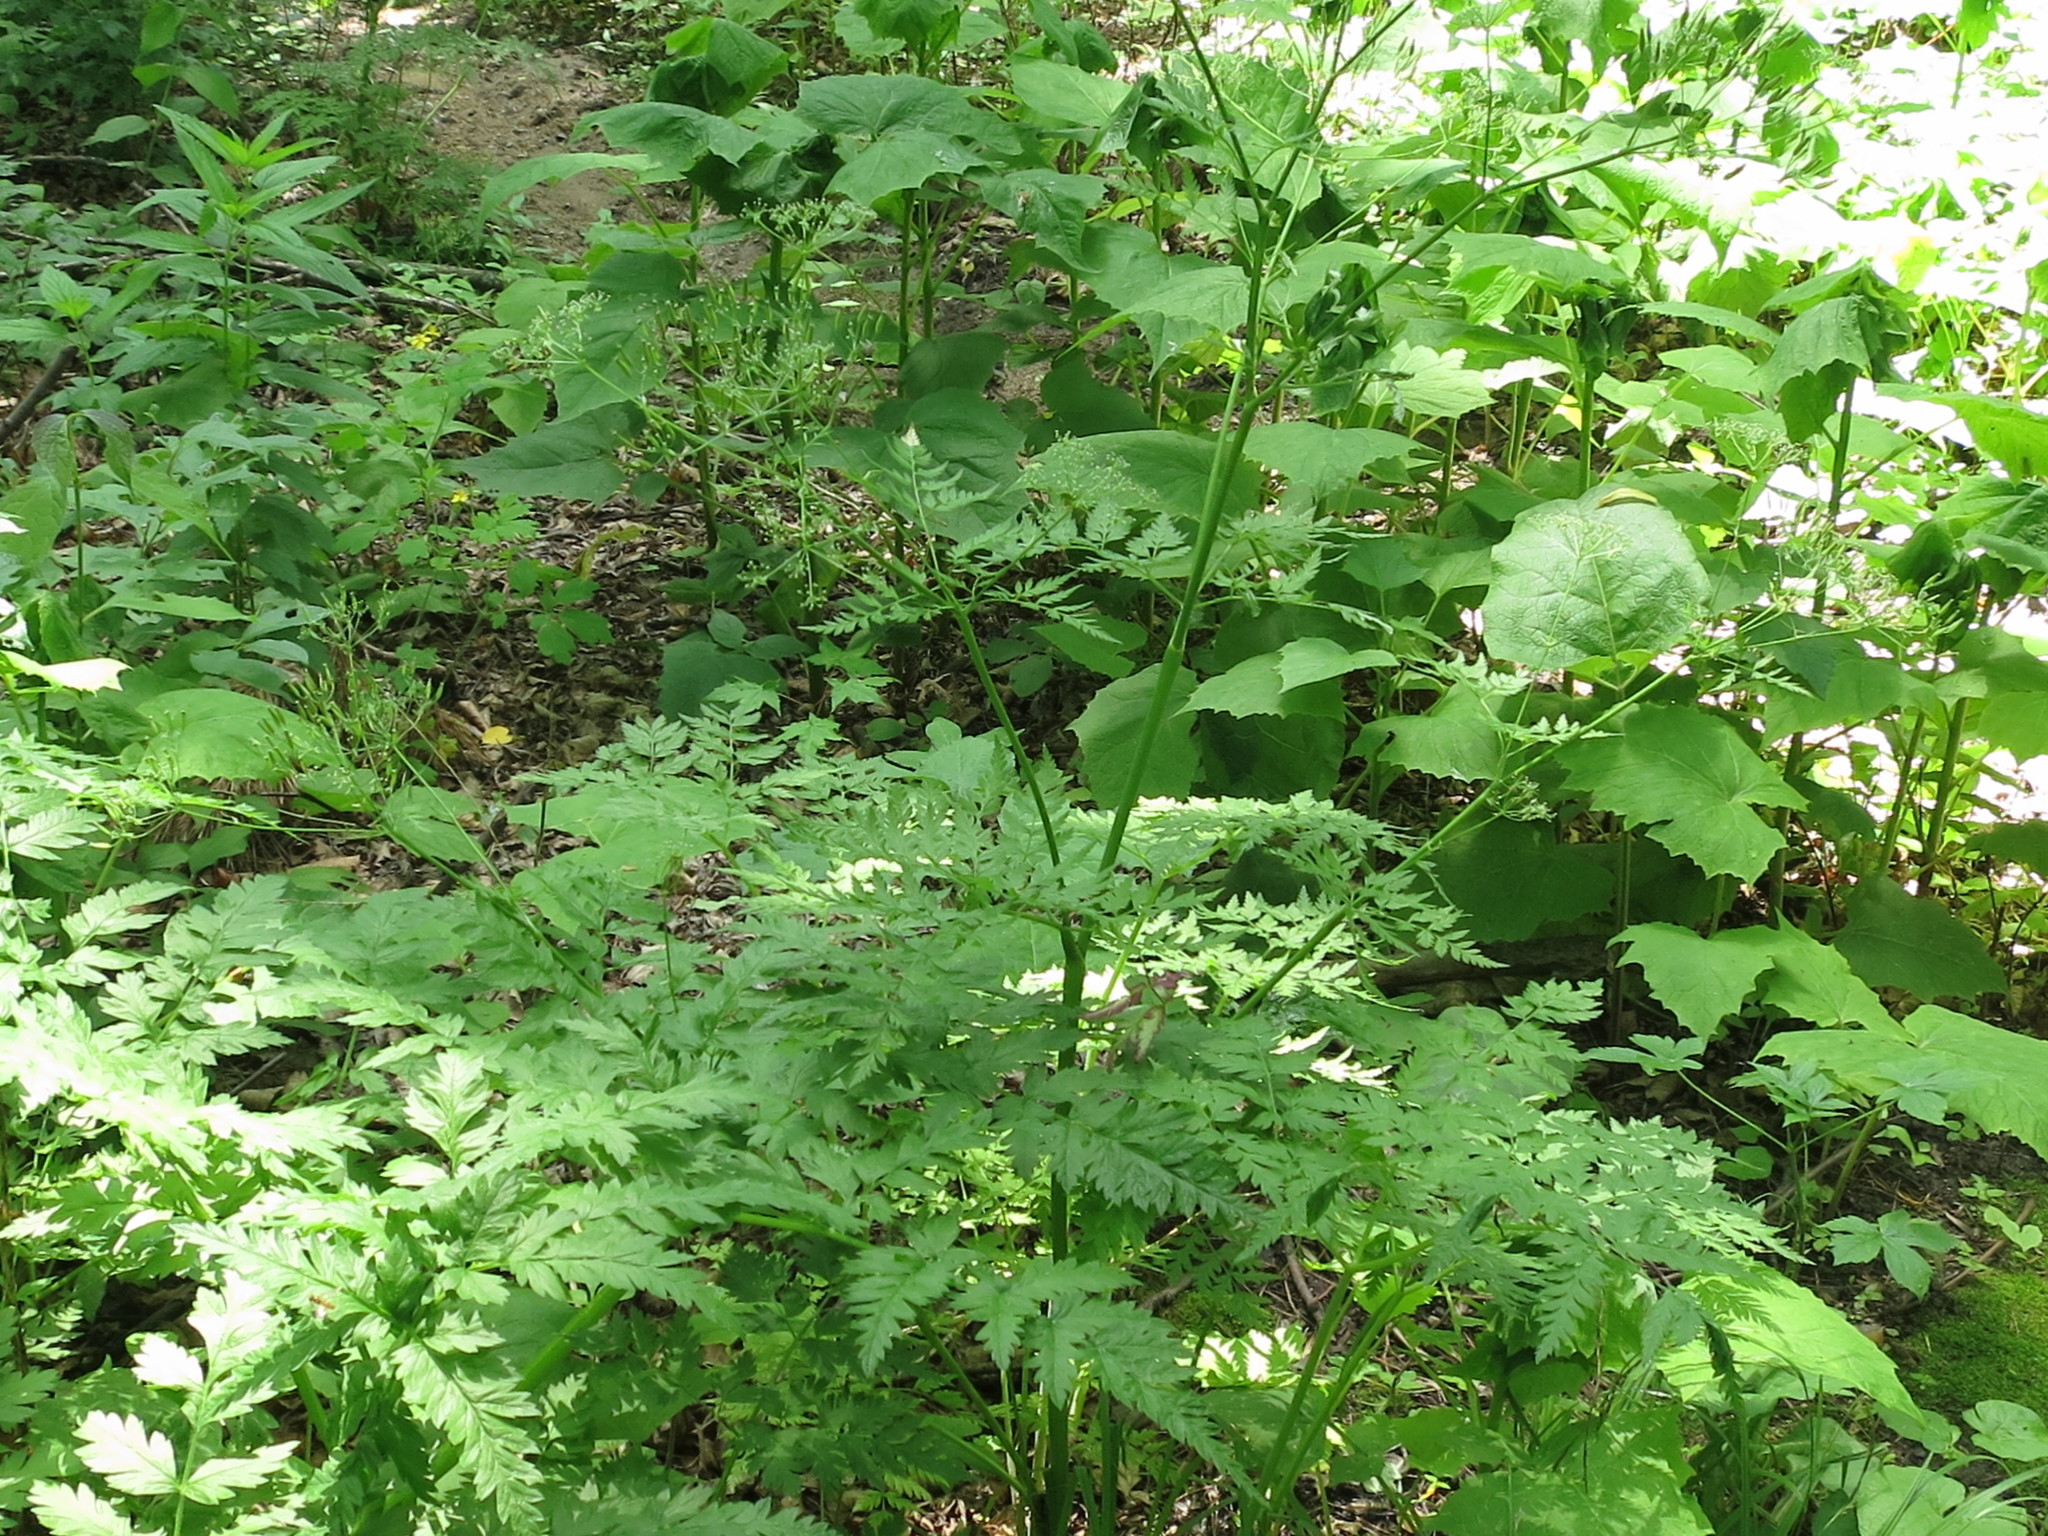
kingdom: Plantae
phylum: Tracheophyta
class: Magnoliopsida
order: Apiales
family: Apiaceae
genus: Anthriscus
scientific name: Anthriscus sylvestris
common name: Cow parsley
